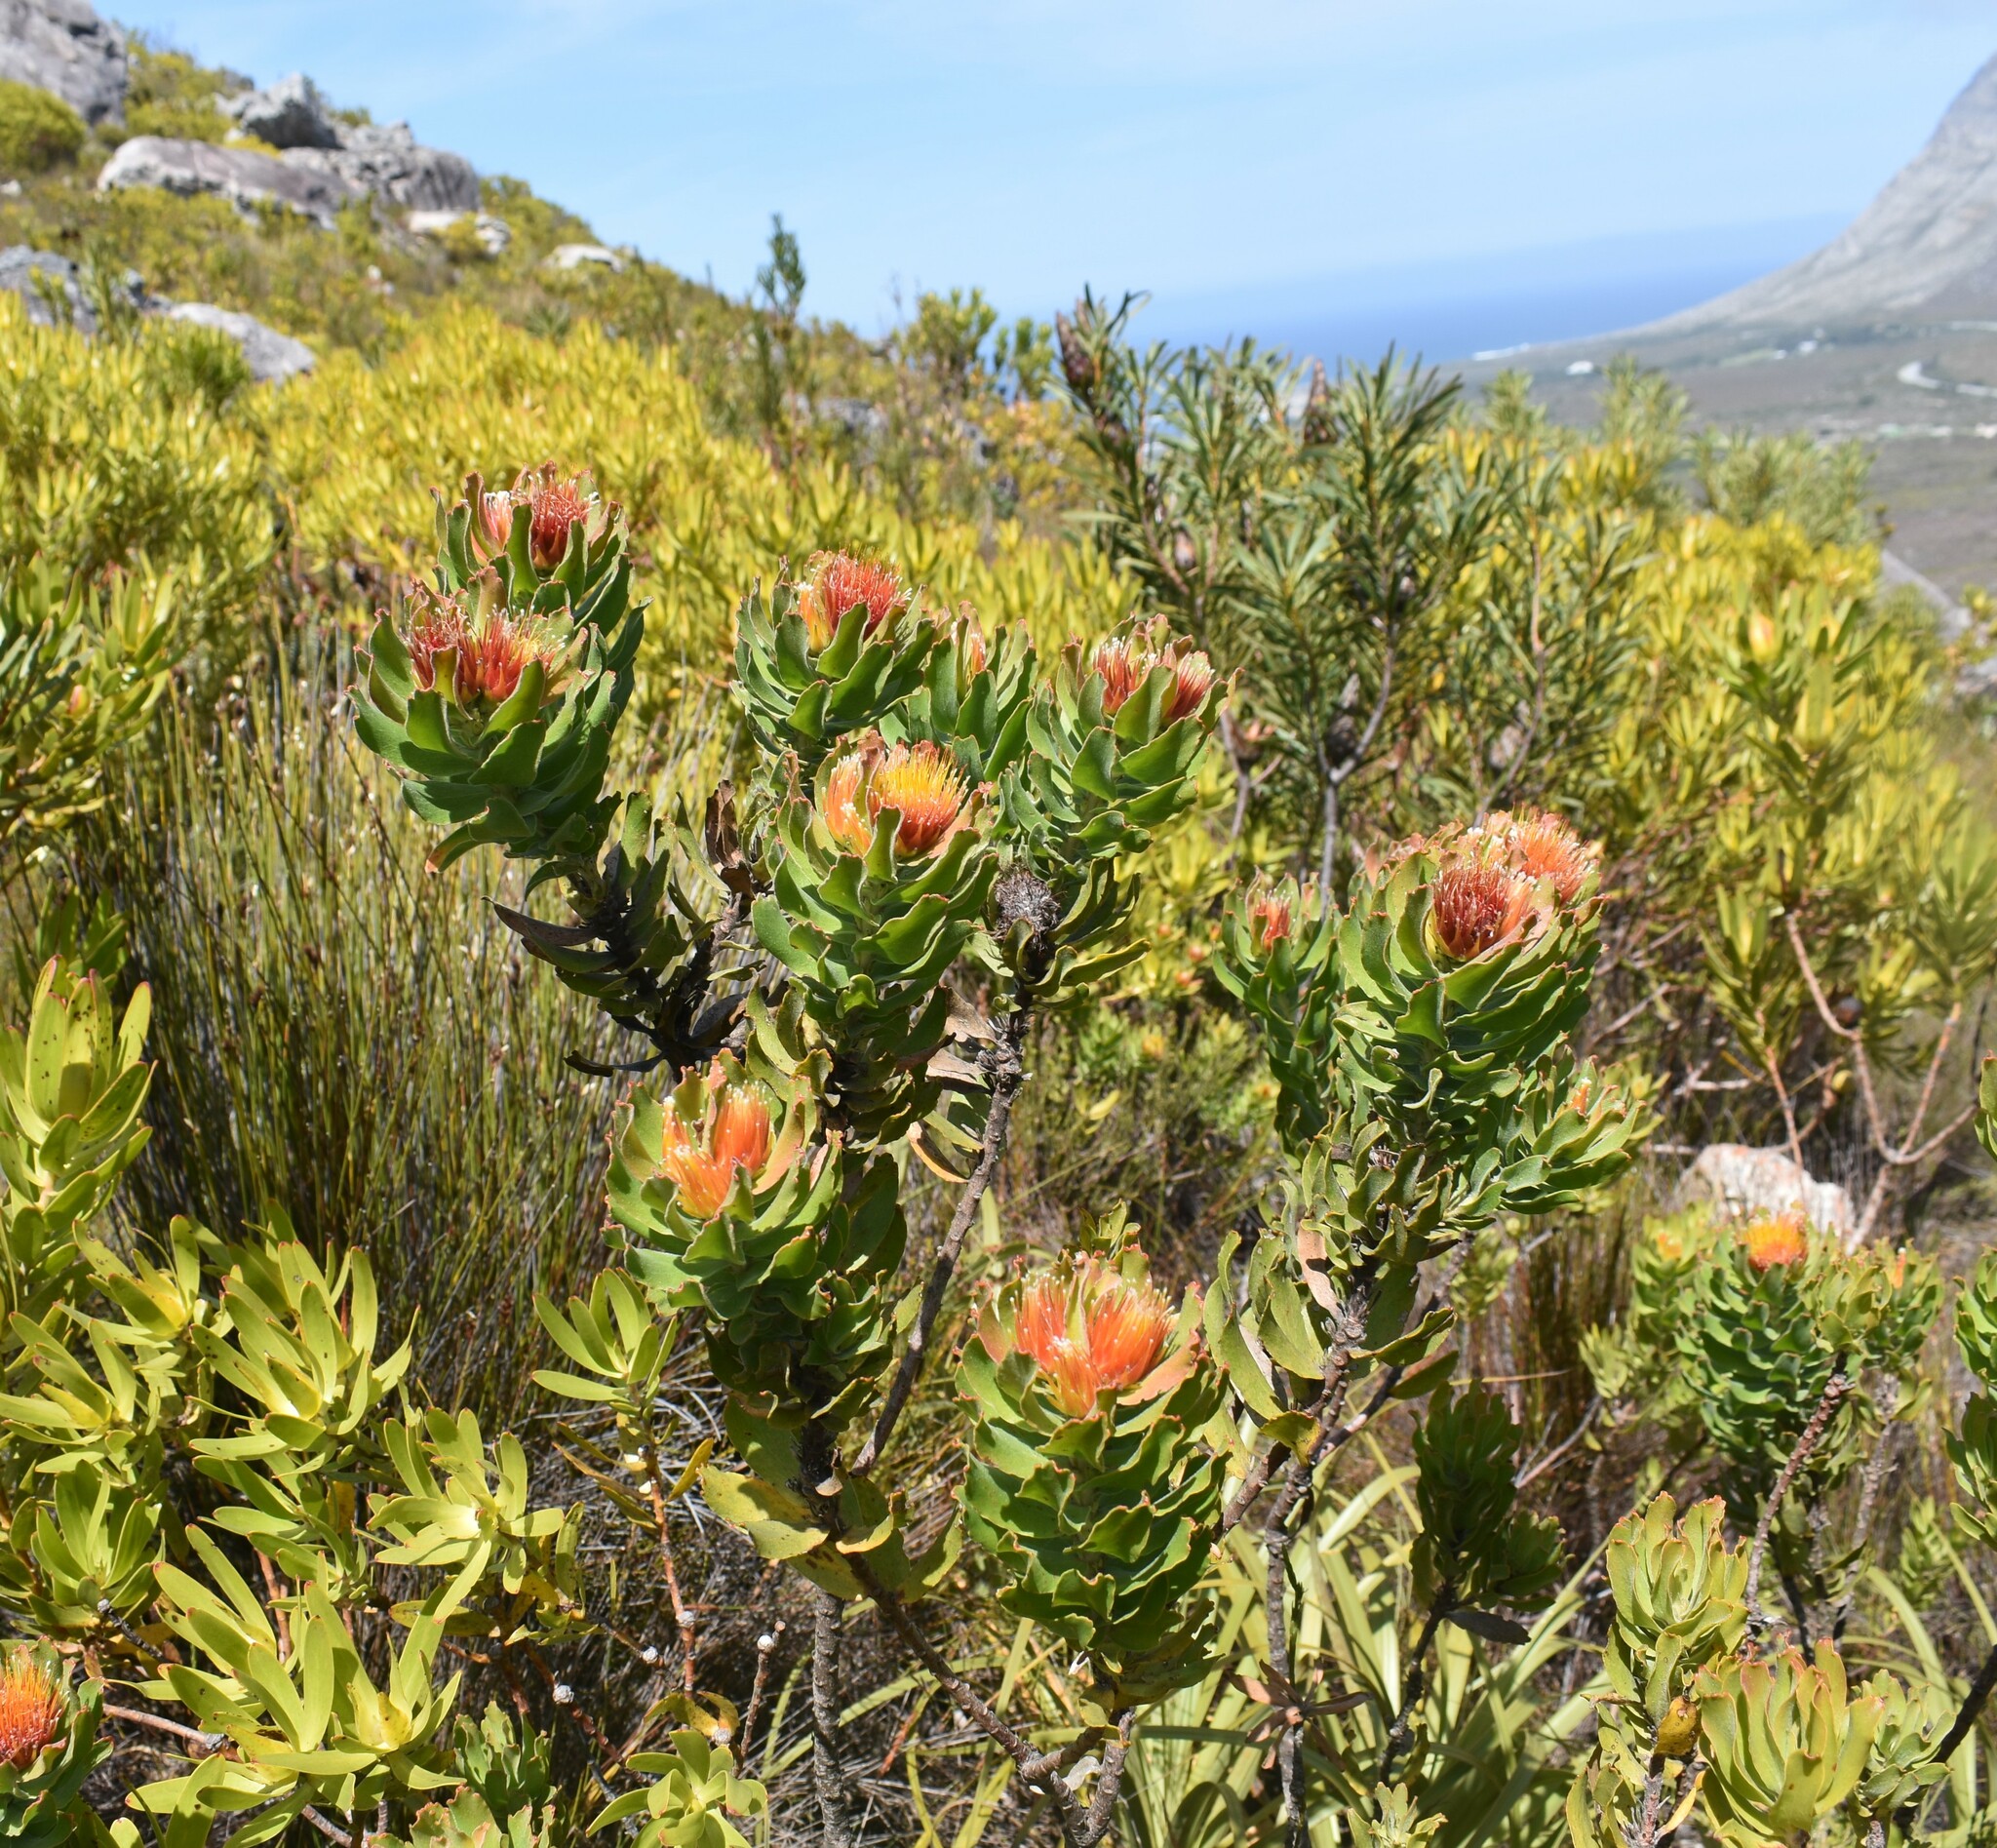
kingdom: Plantae
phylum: Tracheophyta
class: Magnoliopsida
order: Proteales
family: Proteaceae
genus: Leucospermum
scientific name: Leucospermum oleifolium
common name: Matches
